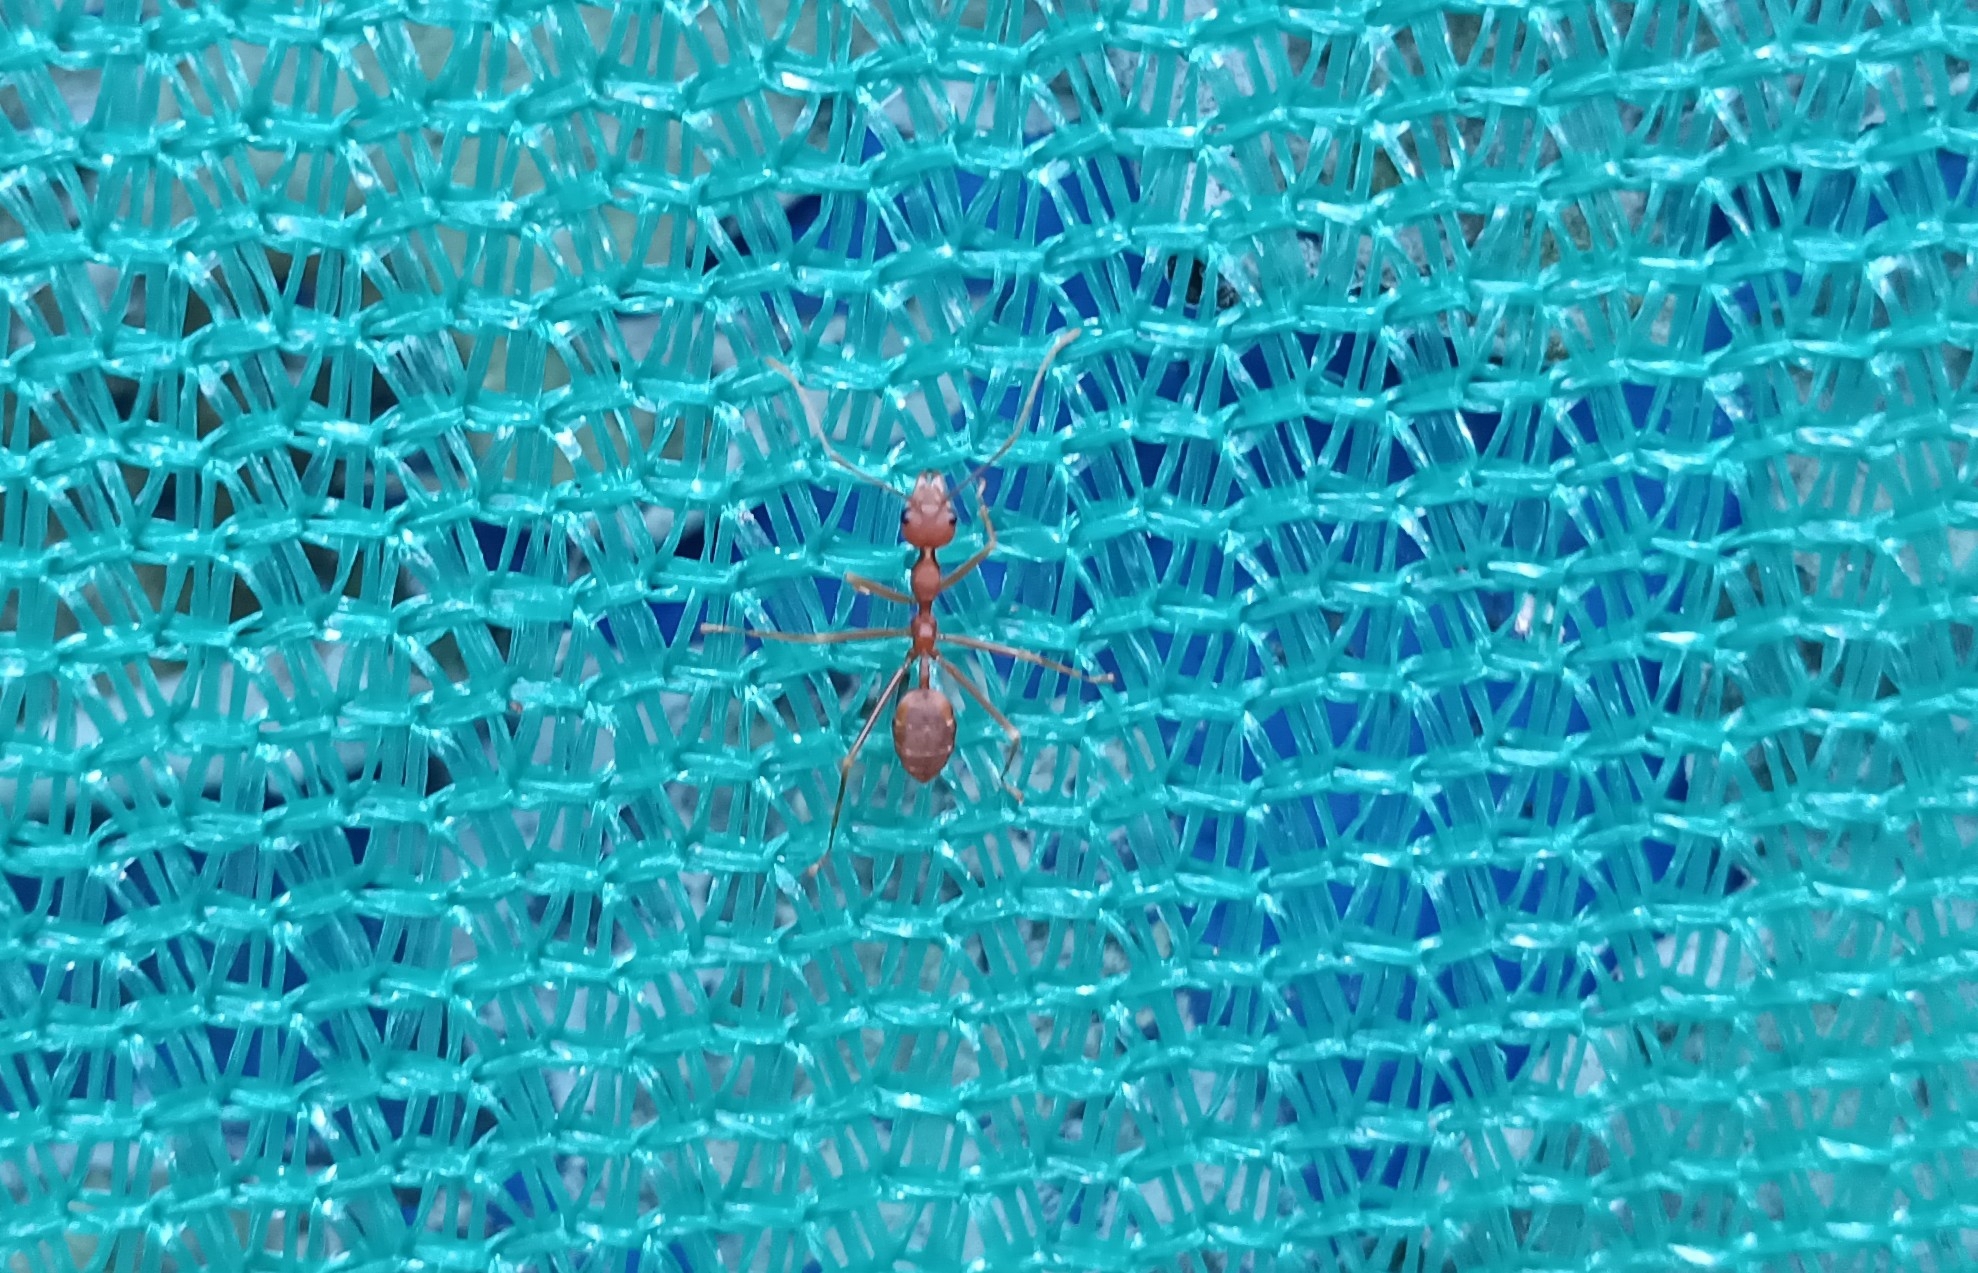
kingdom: Animalia
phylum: Arthropoda
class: Insecta
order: Hymenoptera
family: Formicidae
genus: Oecophylla
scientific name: Oecophylla smaragdina
